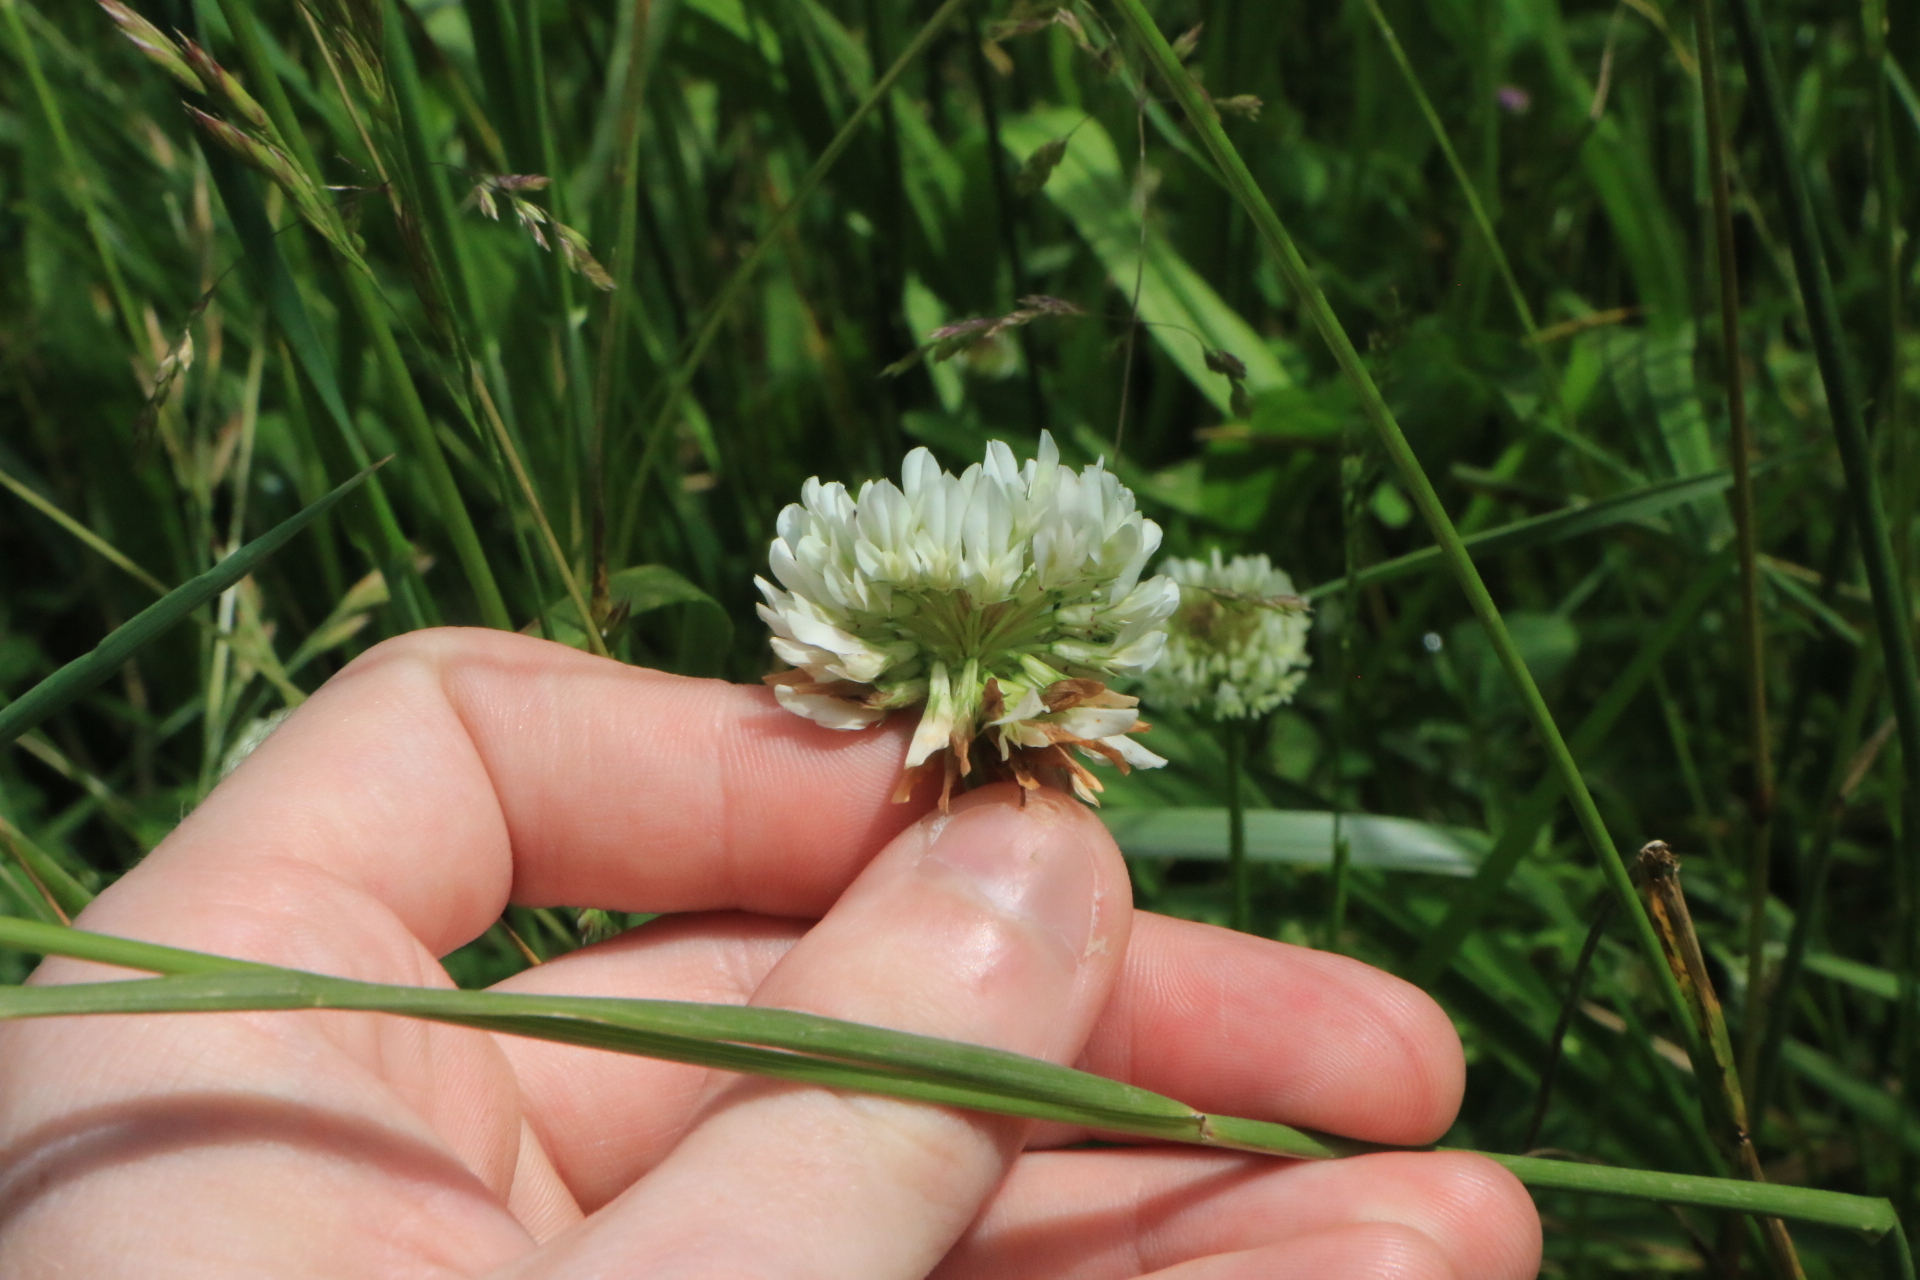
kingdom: Plantae
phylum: Tracheophyta
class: Magnoliopsida
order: Fabales
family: Fabaceae
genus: Trifolium
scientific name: Trifolium repens
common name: White clover
